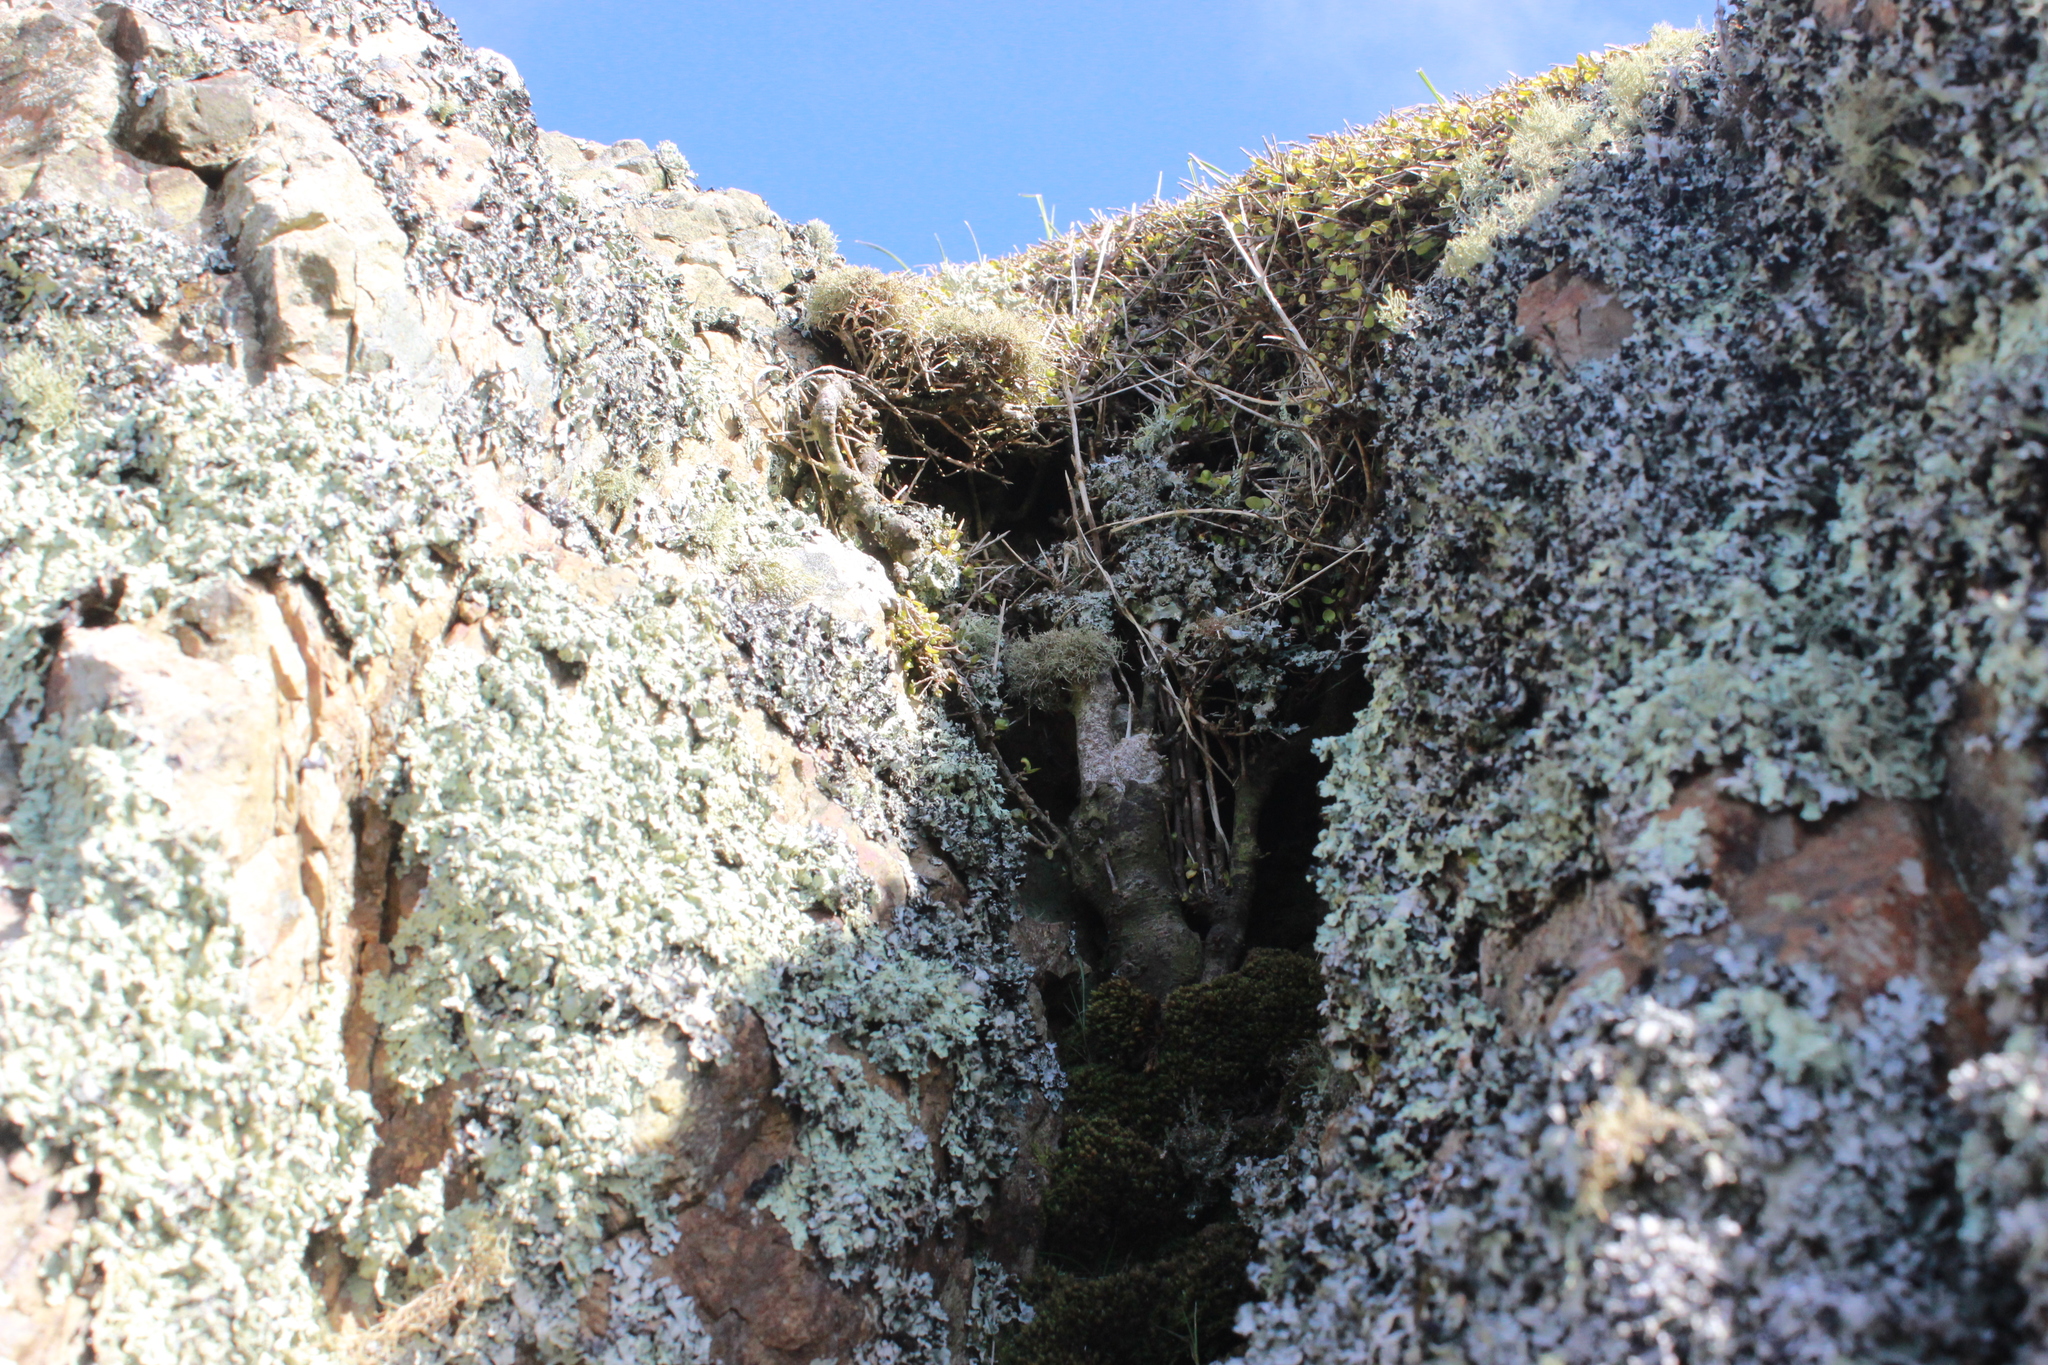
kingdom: Plantae
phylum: Tracheophyta
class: Magnoliopsida
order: Gentianales
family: Rubiaceae
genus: Coprosma
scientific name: Coprosma rhamnoides
